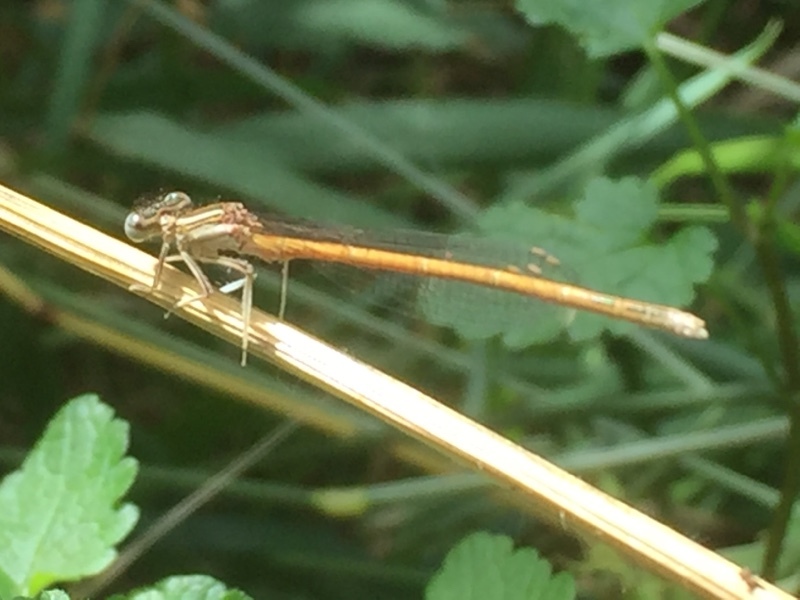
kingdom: Animalia
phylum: Arthropoda
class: Insecta
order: Odonata
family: Platycnemididae
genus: Platycnemis
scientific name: Platycnemis acutipennis
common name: Orange featherleg
